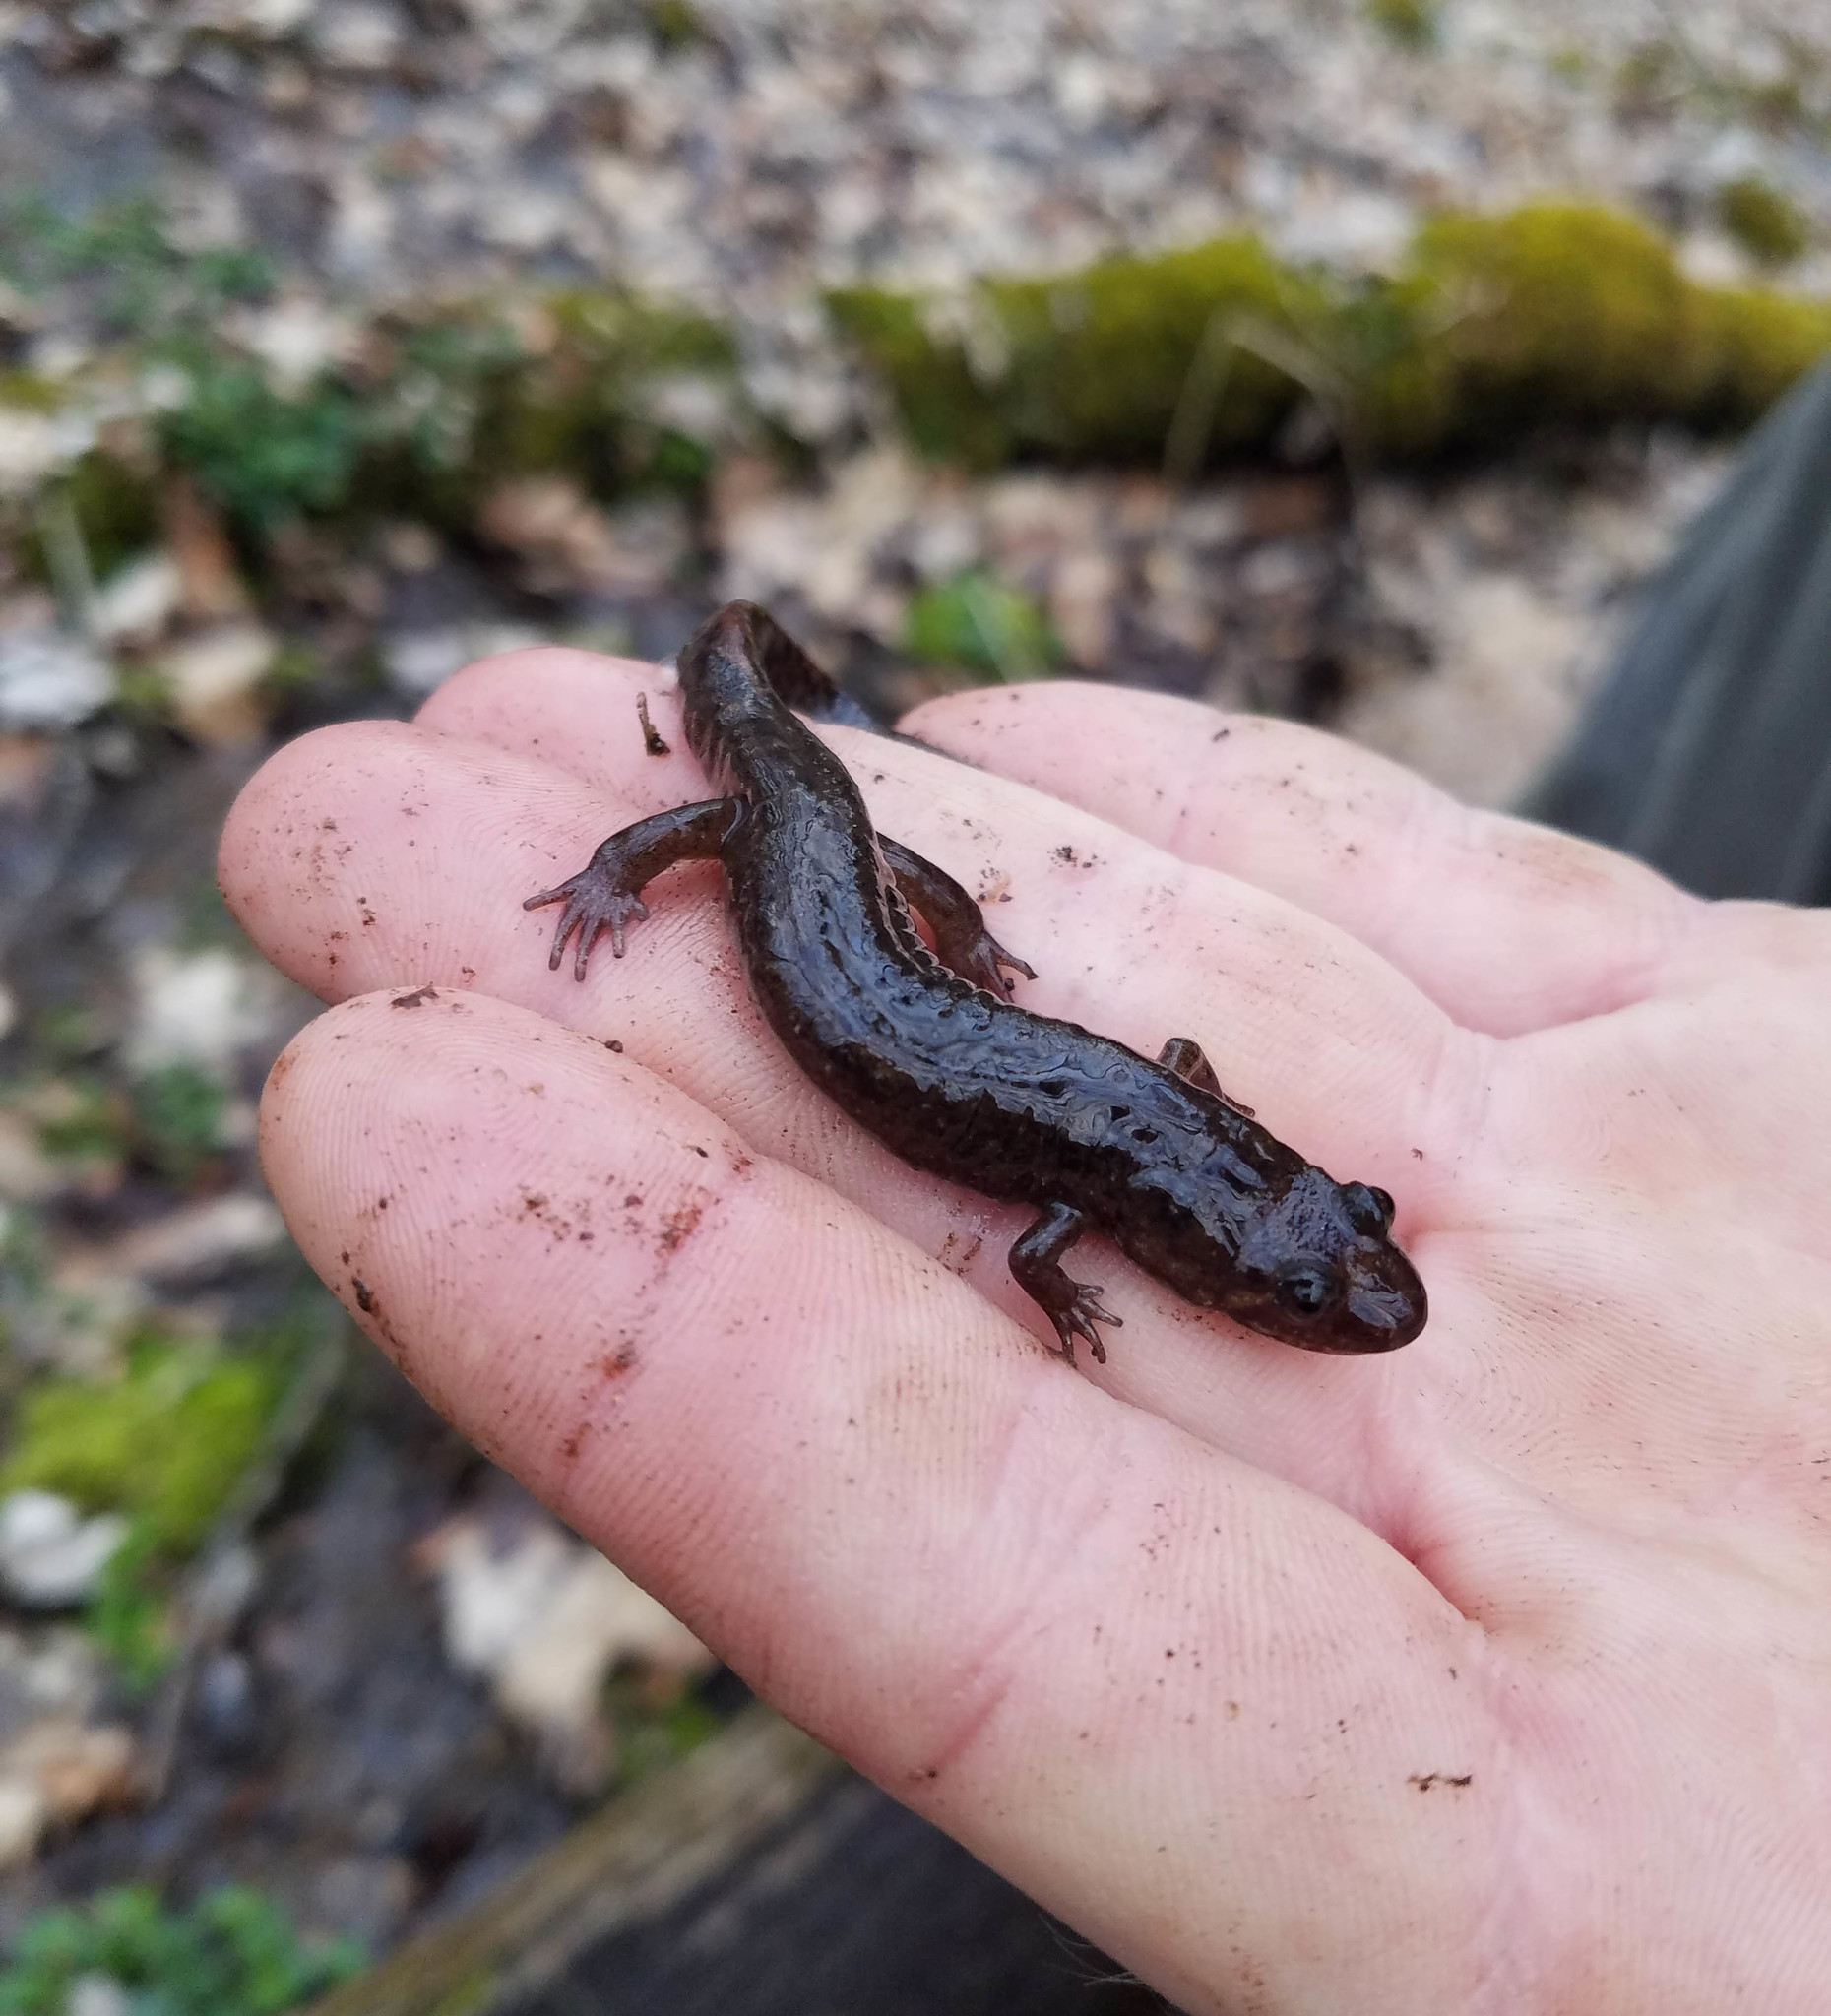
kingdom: Animalia
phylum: Chordata
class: Amphibia
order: Caudata
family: Plethodontidae
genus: Desmognathus
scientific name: Desmognathus monticola
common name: Seal salamander
